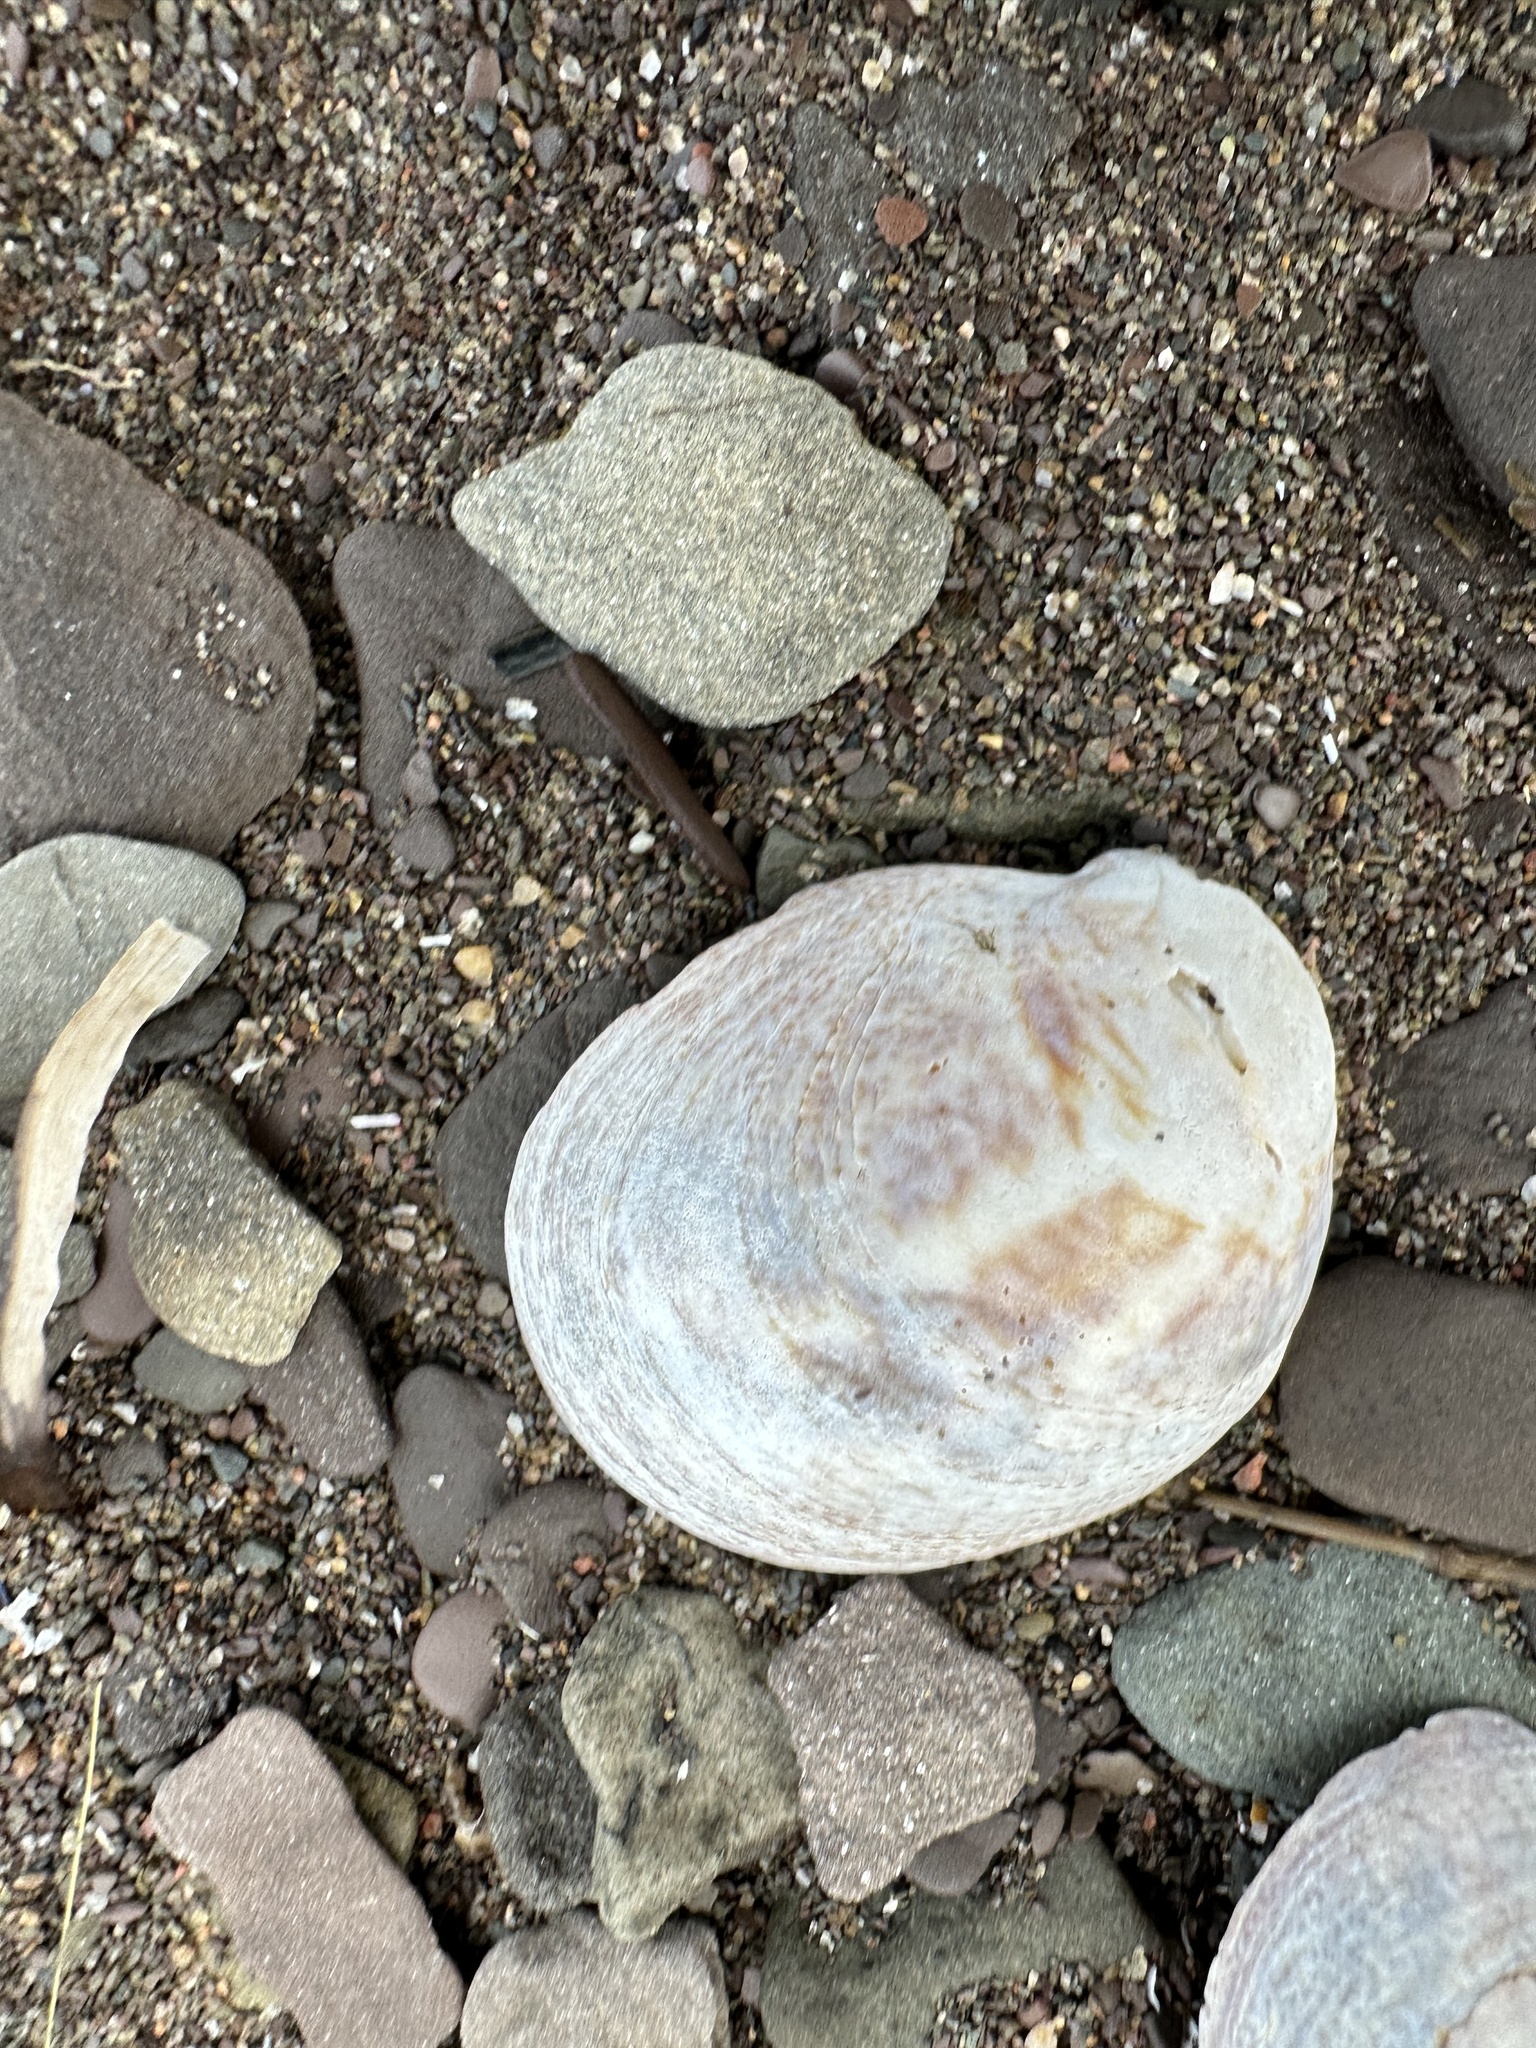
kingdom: Animalia
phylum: Mollusca
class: Gastropoda
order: Littorinimorpha
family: Calyptraeidae
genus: Crepidula
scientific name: Crepidula fornicata
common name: Slipper limpet
